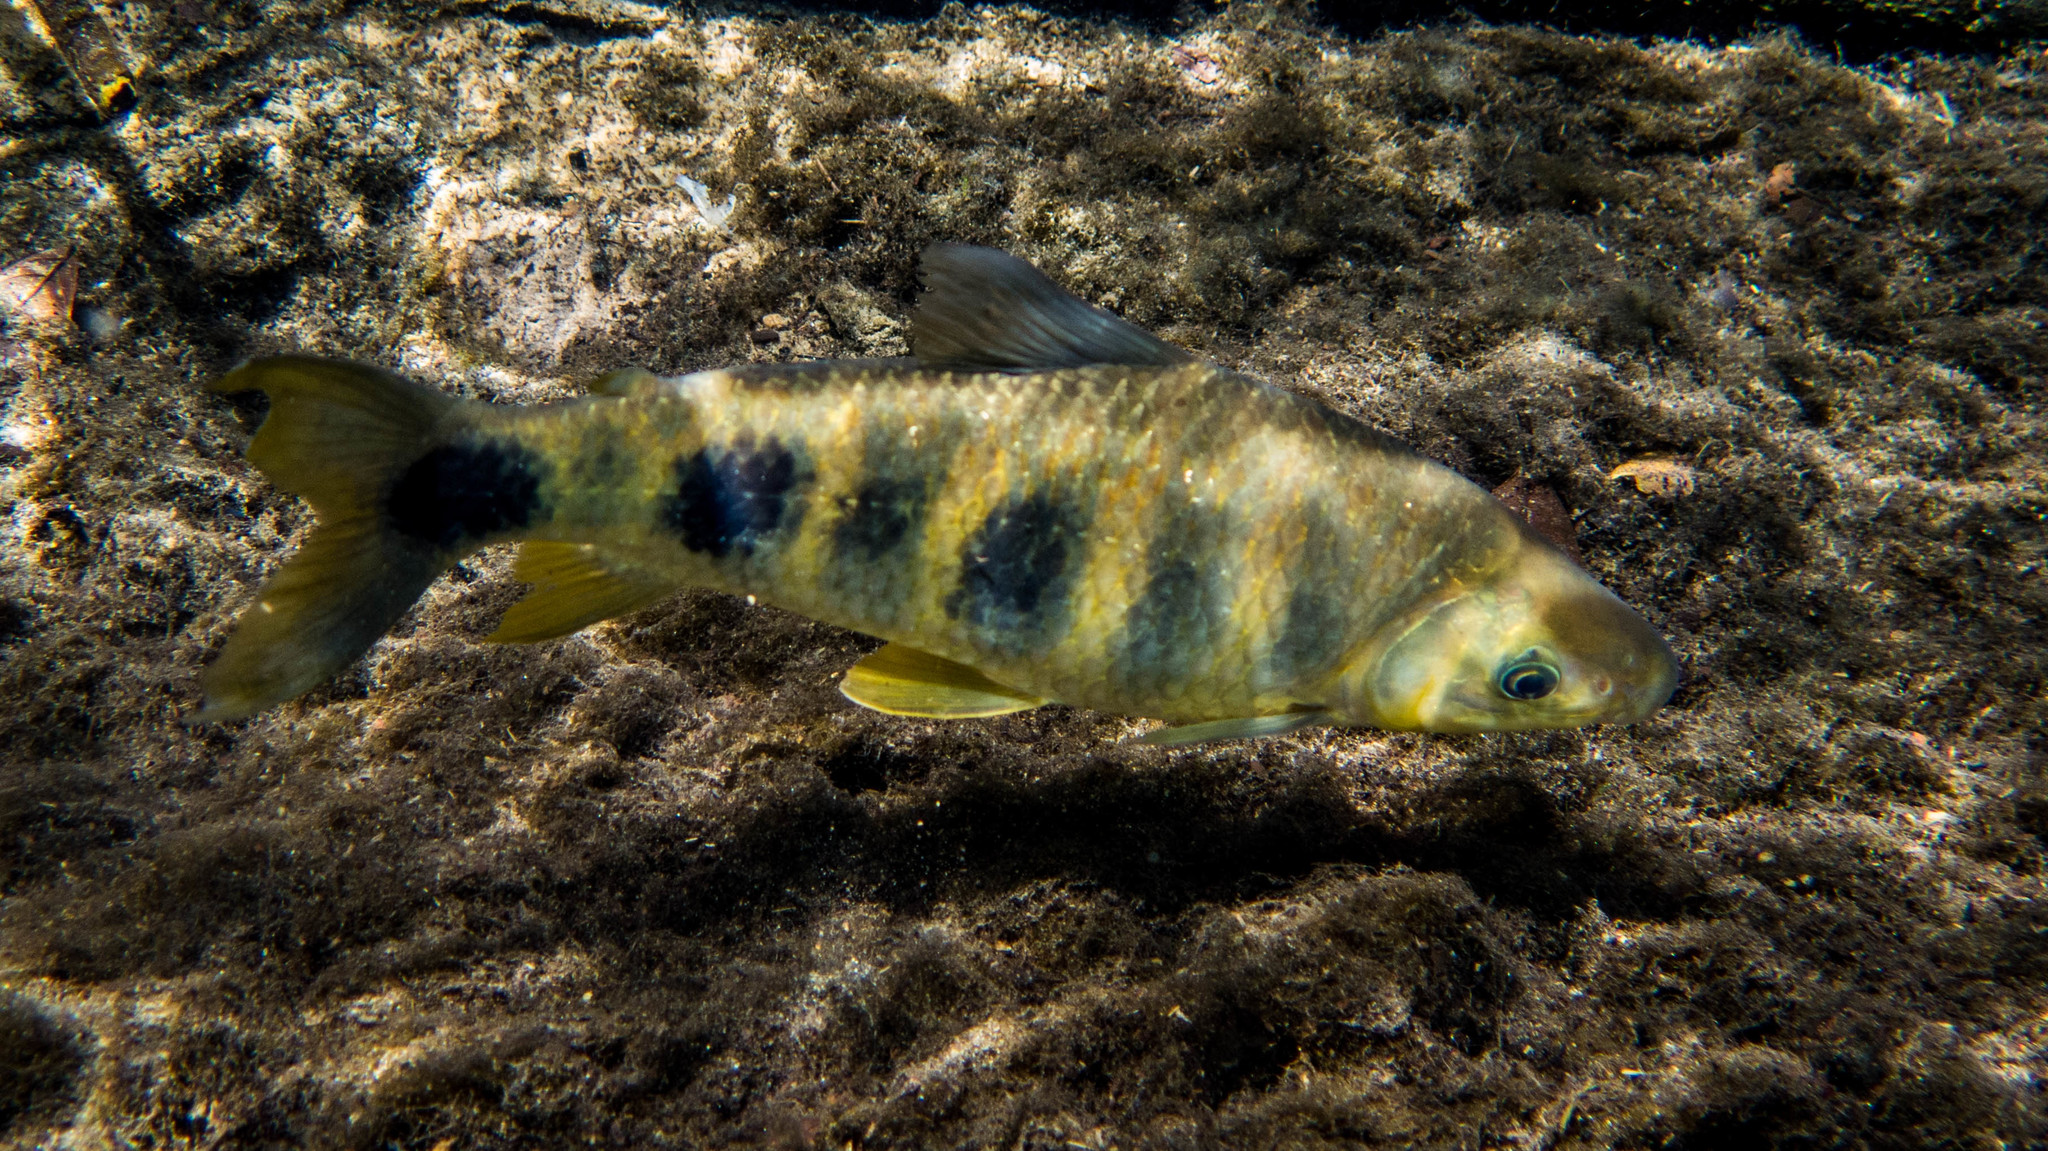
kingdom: Animalia
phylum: Chordata
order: Characiformes
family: Anostomidae
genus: Leporinus
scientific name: Leporinus obtusidens
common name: Characin
